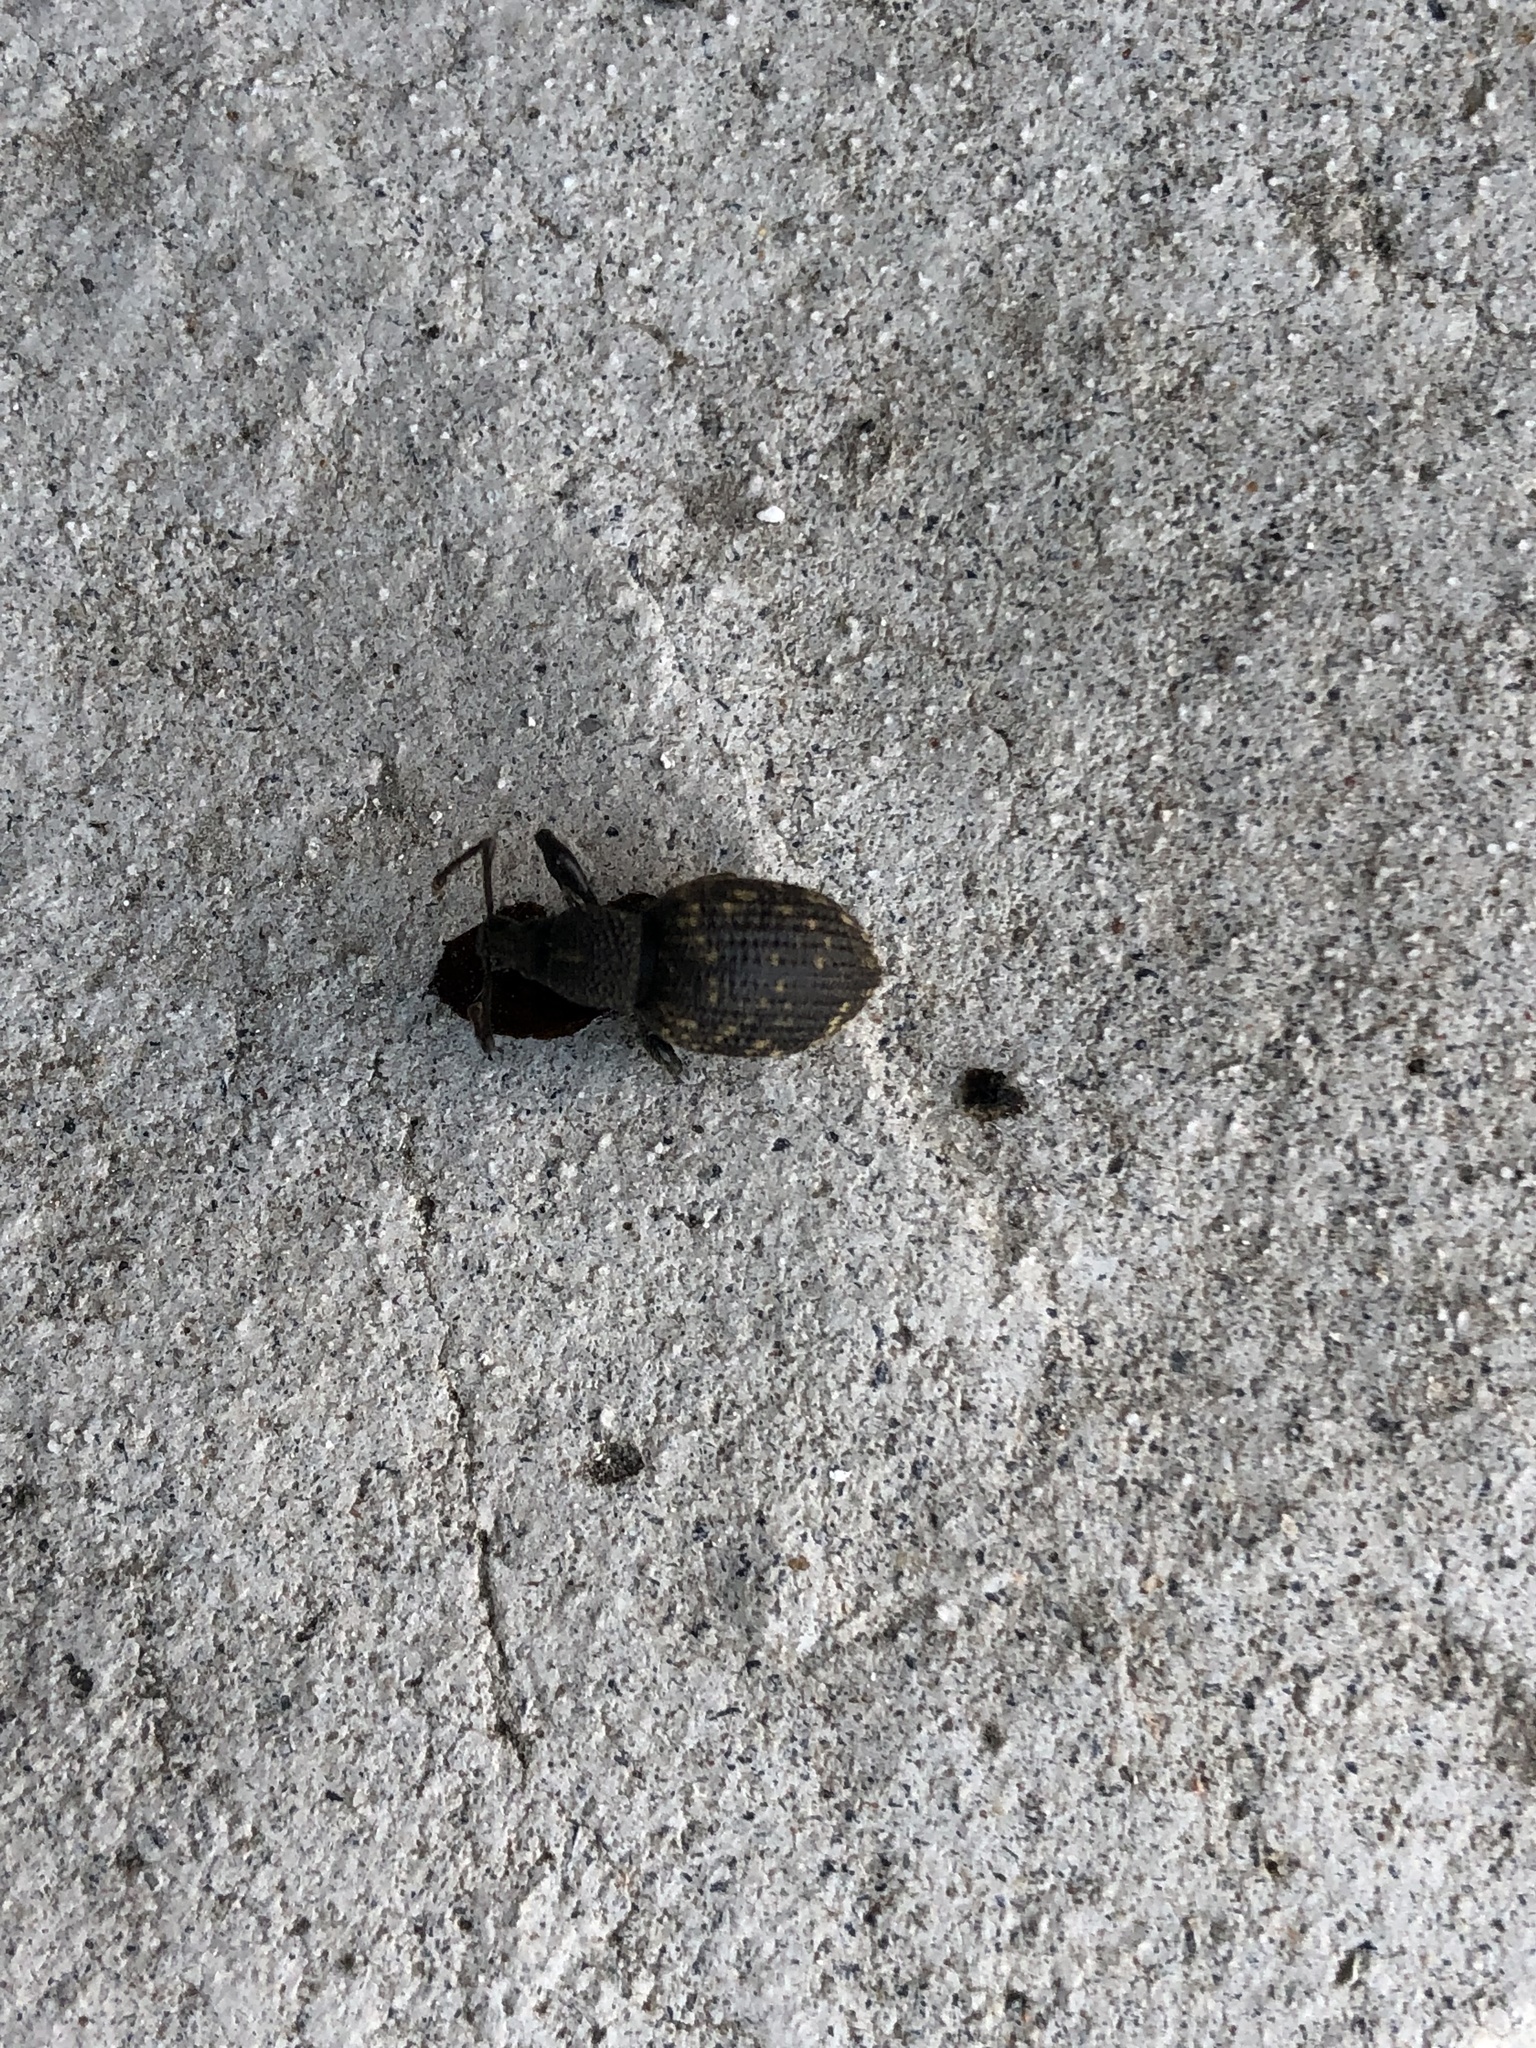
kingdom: Animalia
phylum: Arthropoda
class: Insecta
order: Coleoptera
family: Curculionidae
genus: Otiorhynchus
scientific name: Otiorhynchus sulcatus
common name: Black vine weevil
